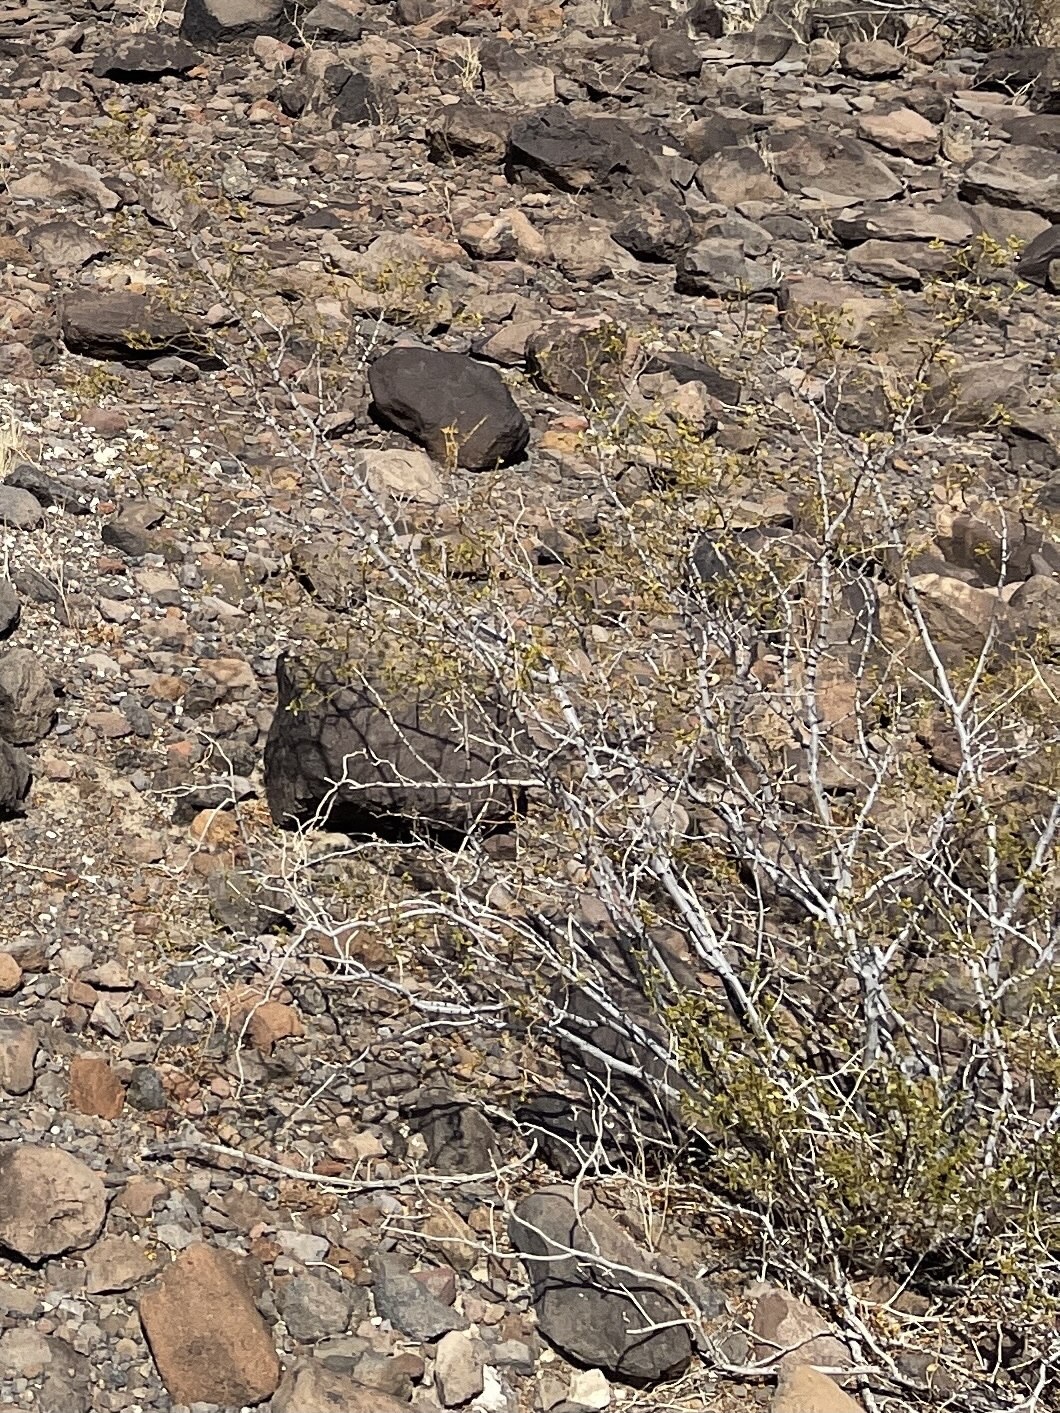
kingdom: Plantae
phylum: Tracheophyta
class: Magnoliopsida
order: Zygophyllales
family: Zygophyllaceae
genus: Larrea
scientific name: Larrea tridentata
